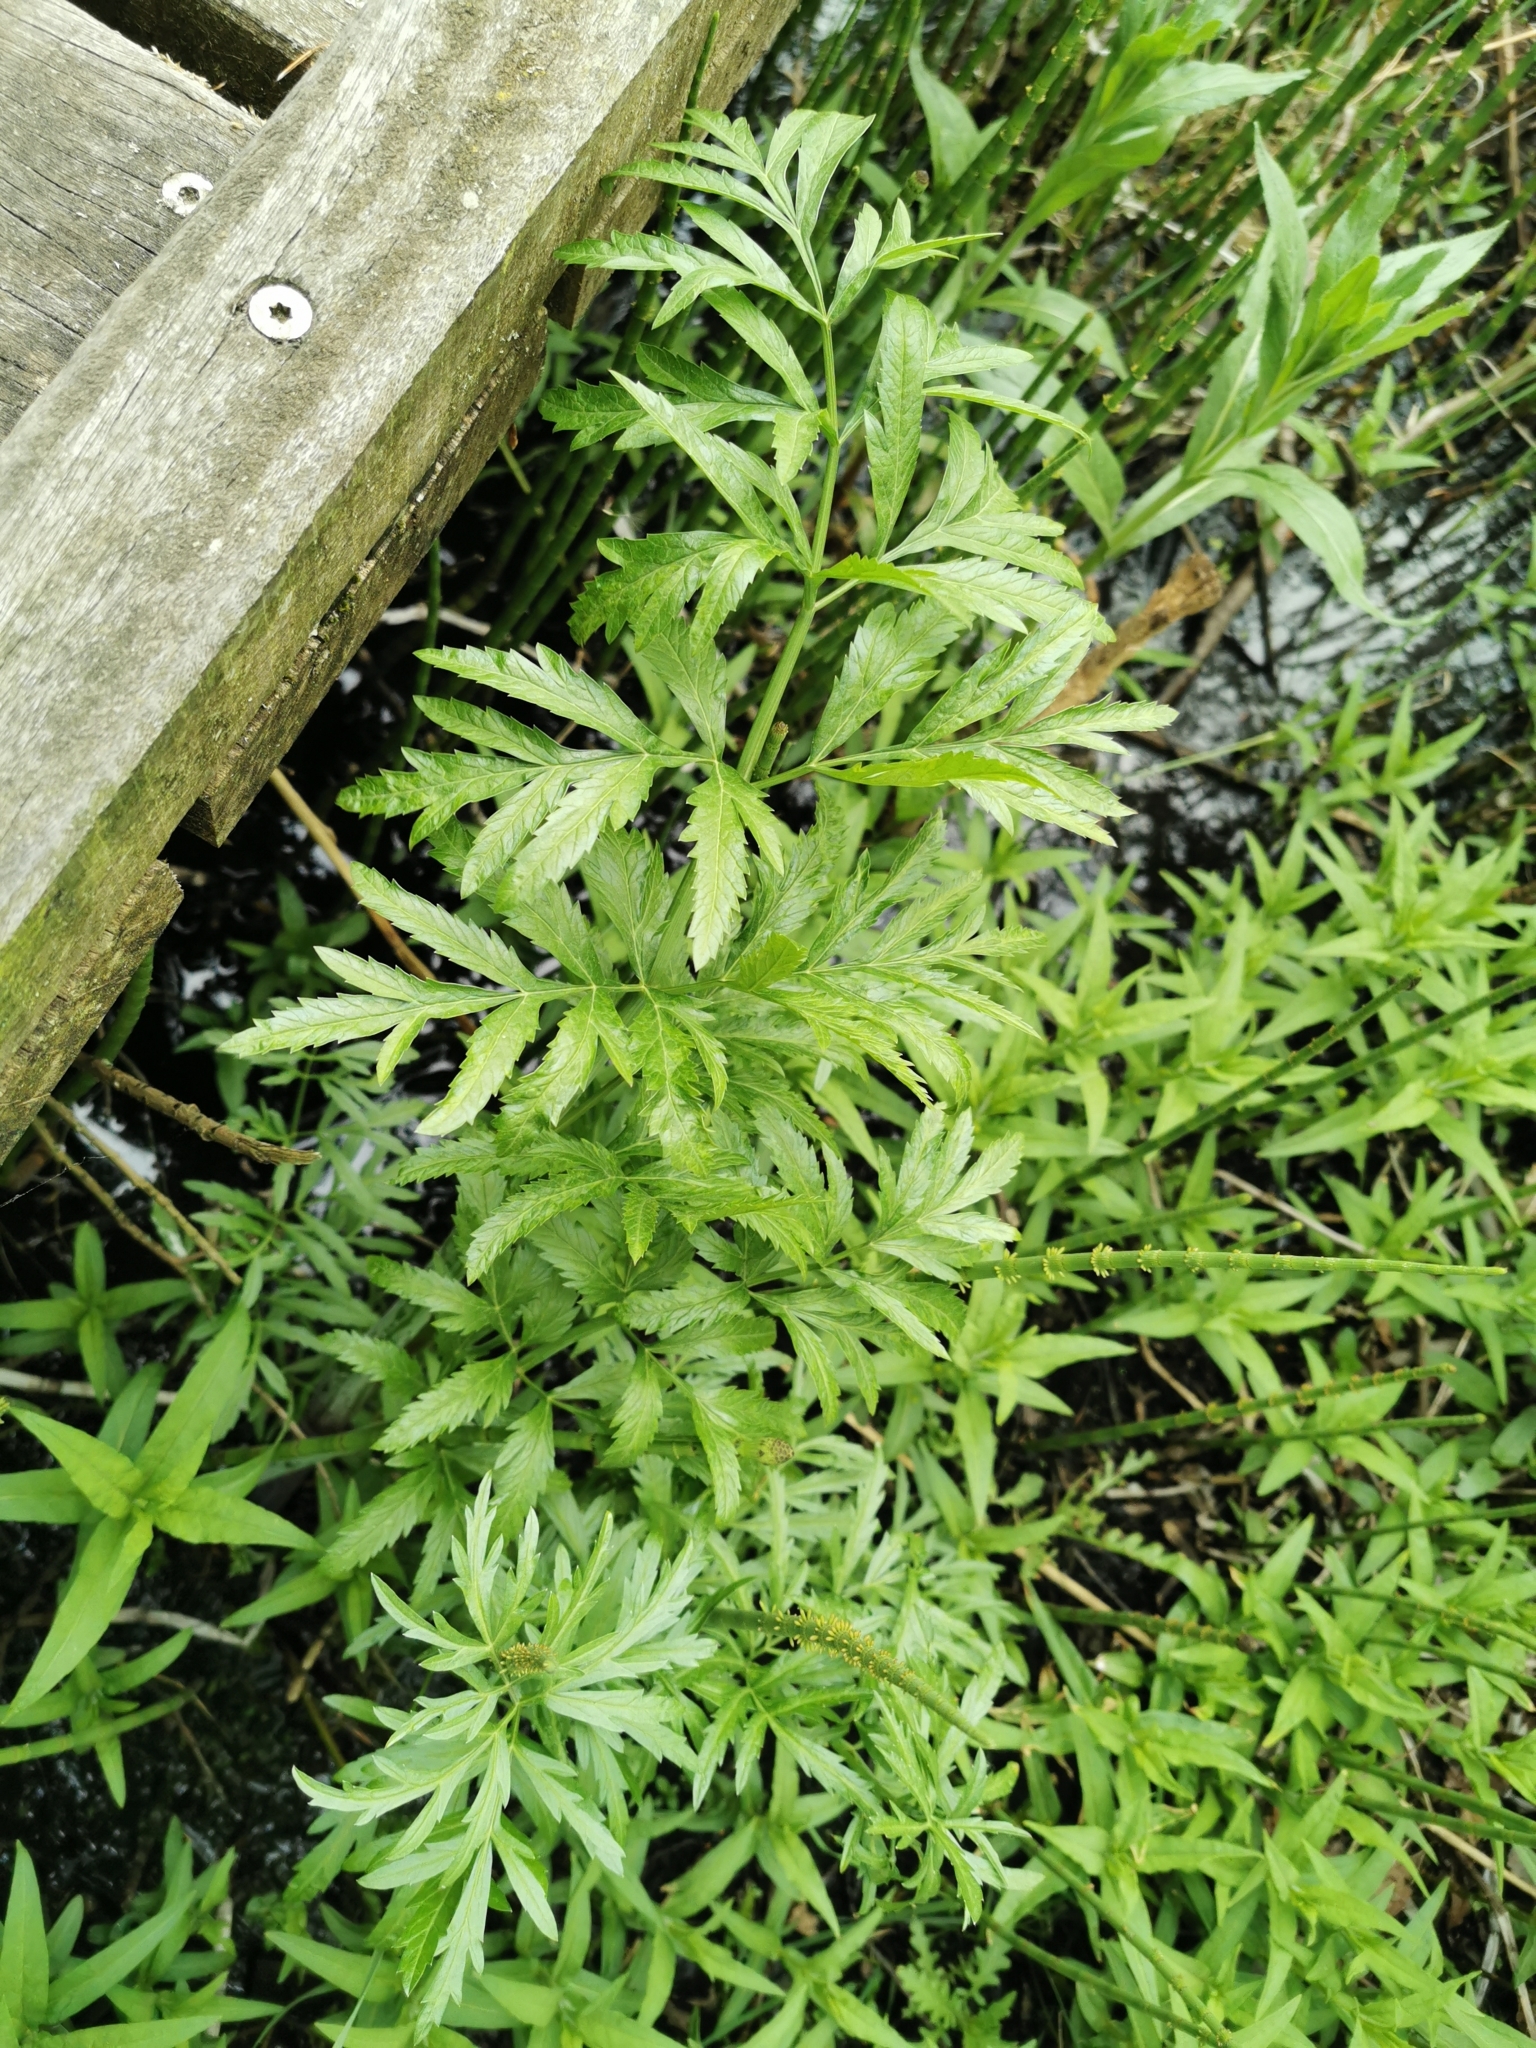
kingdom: Plantae
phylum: Tracheophyta
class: Magnoliopsida
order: Apiales
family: Apiaceae
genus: Cicuta
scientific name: Cicuta virosa
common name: Cowbane
